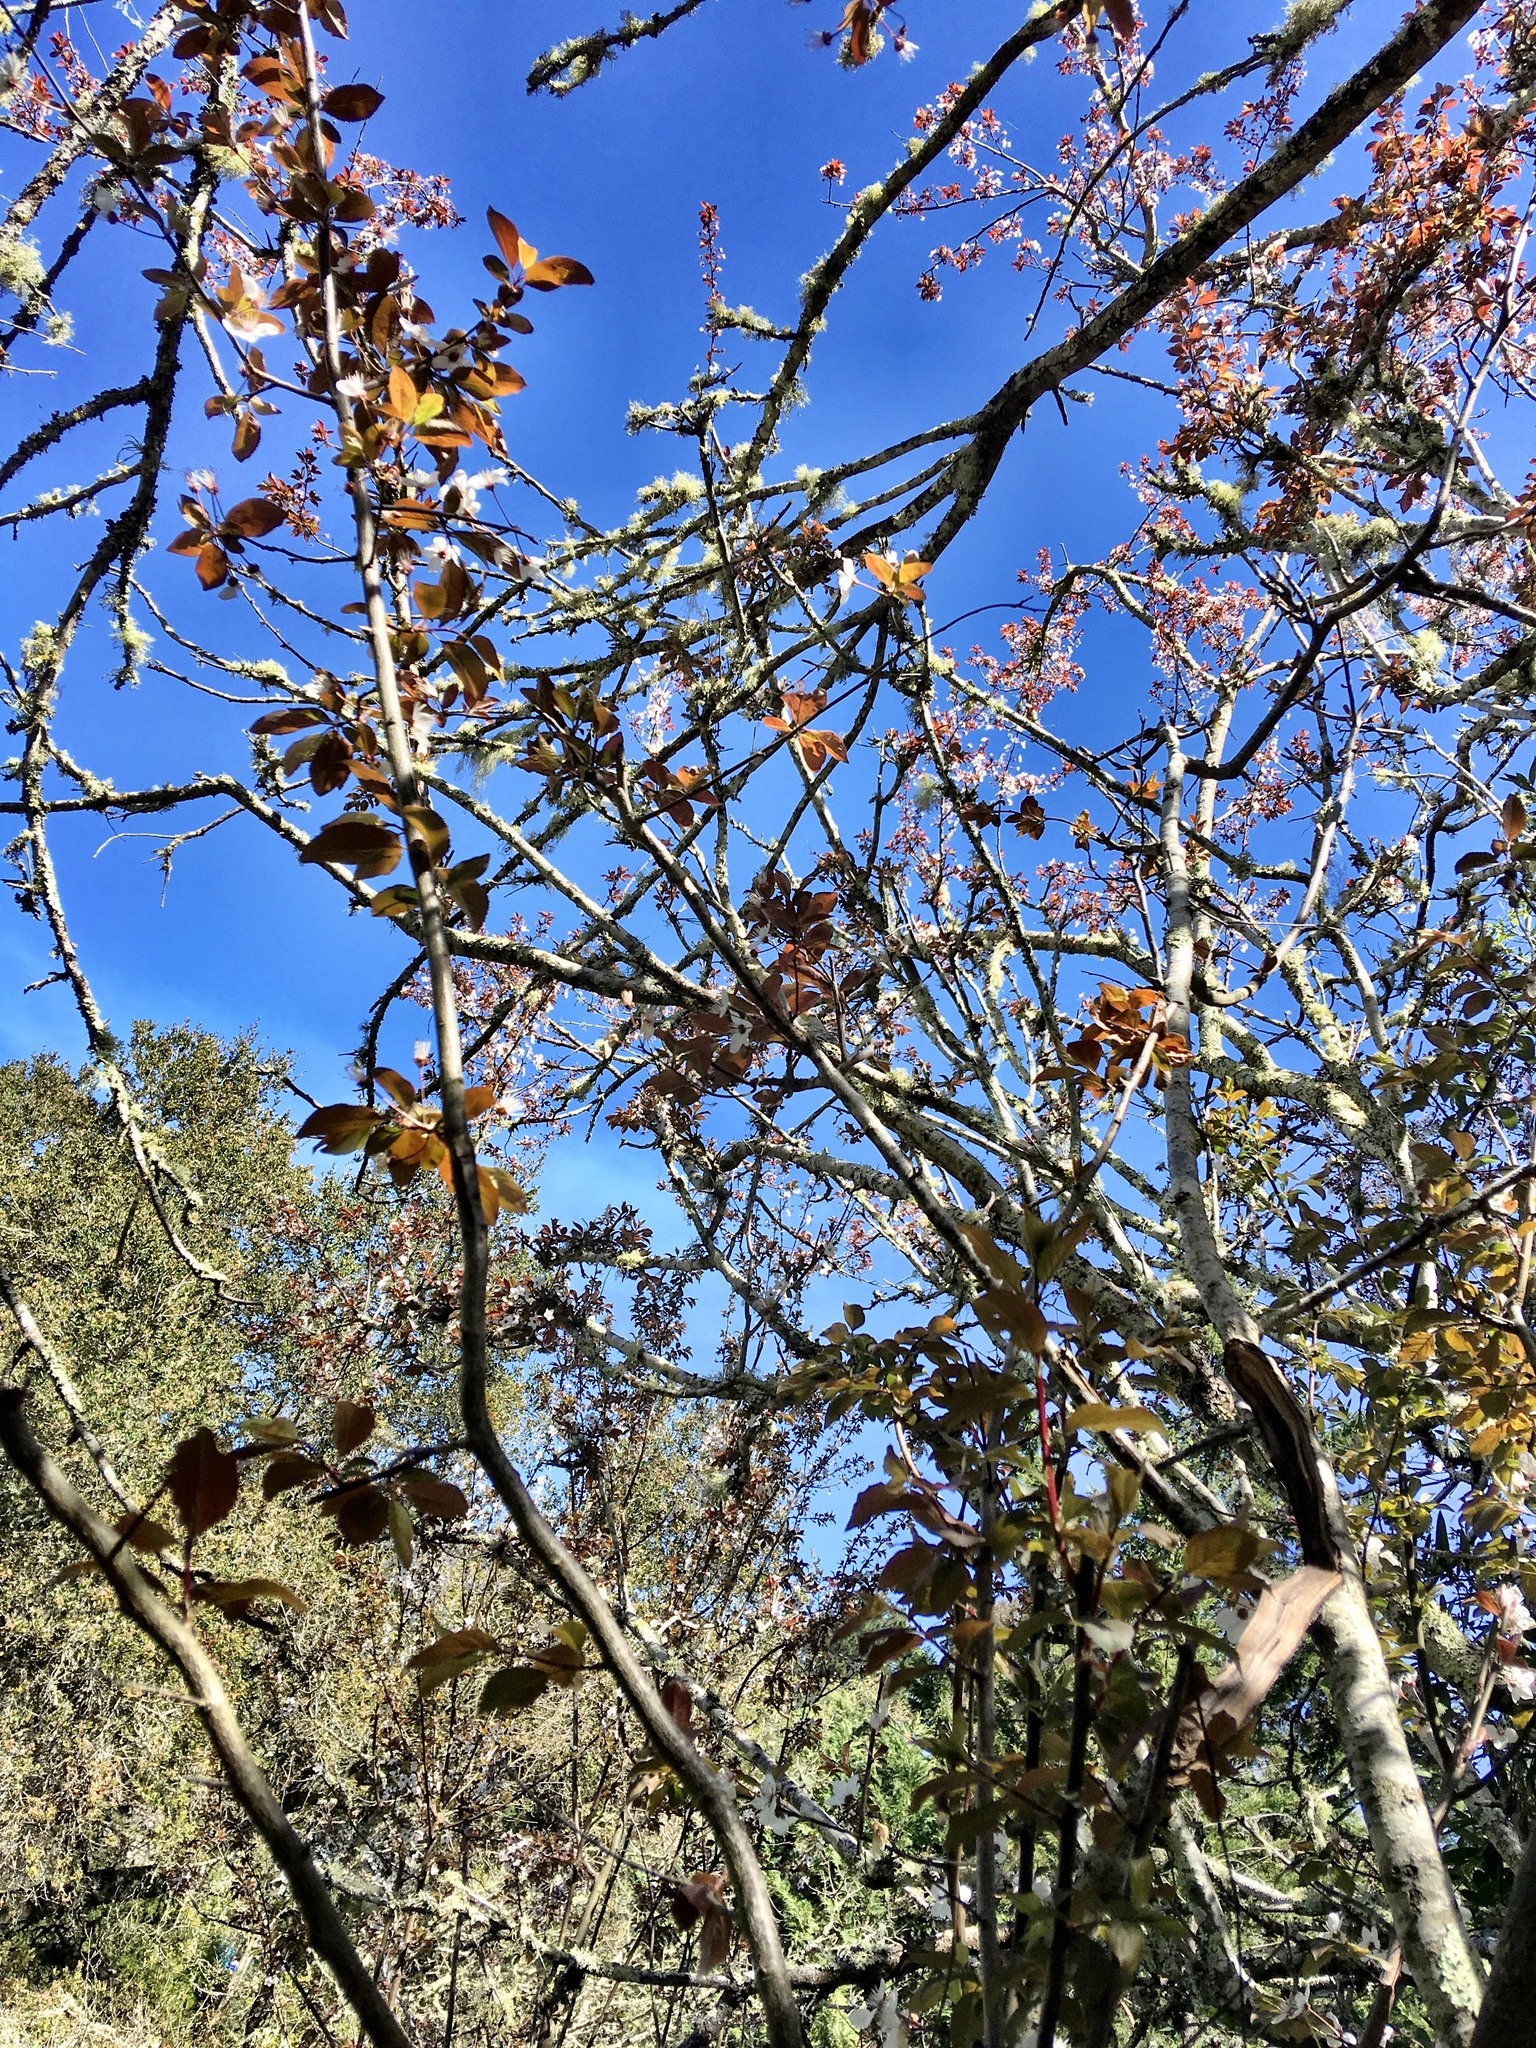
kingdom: Plantae
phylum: Tracheophyta
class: Magnoliopsida
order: Rosales
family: Rosaceae
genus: Prunus
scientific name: Prunus cerasifera
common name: Cherry plum
